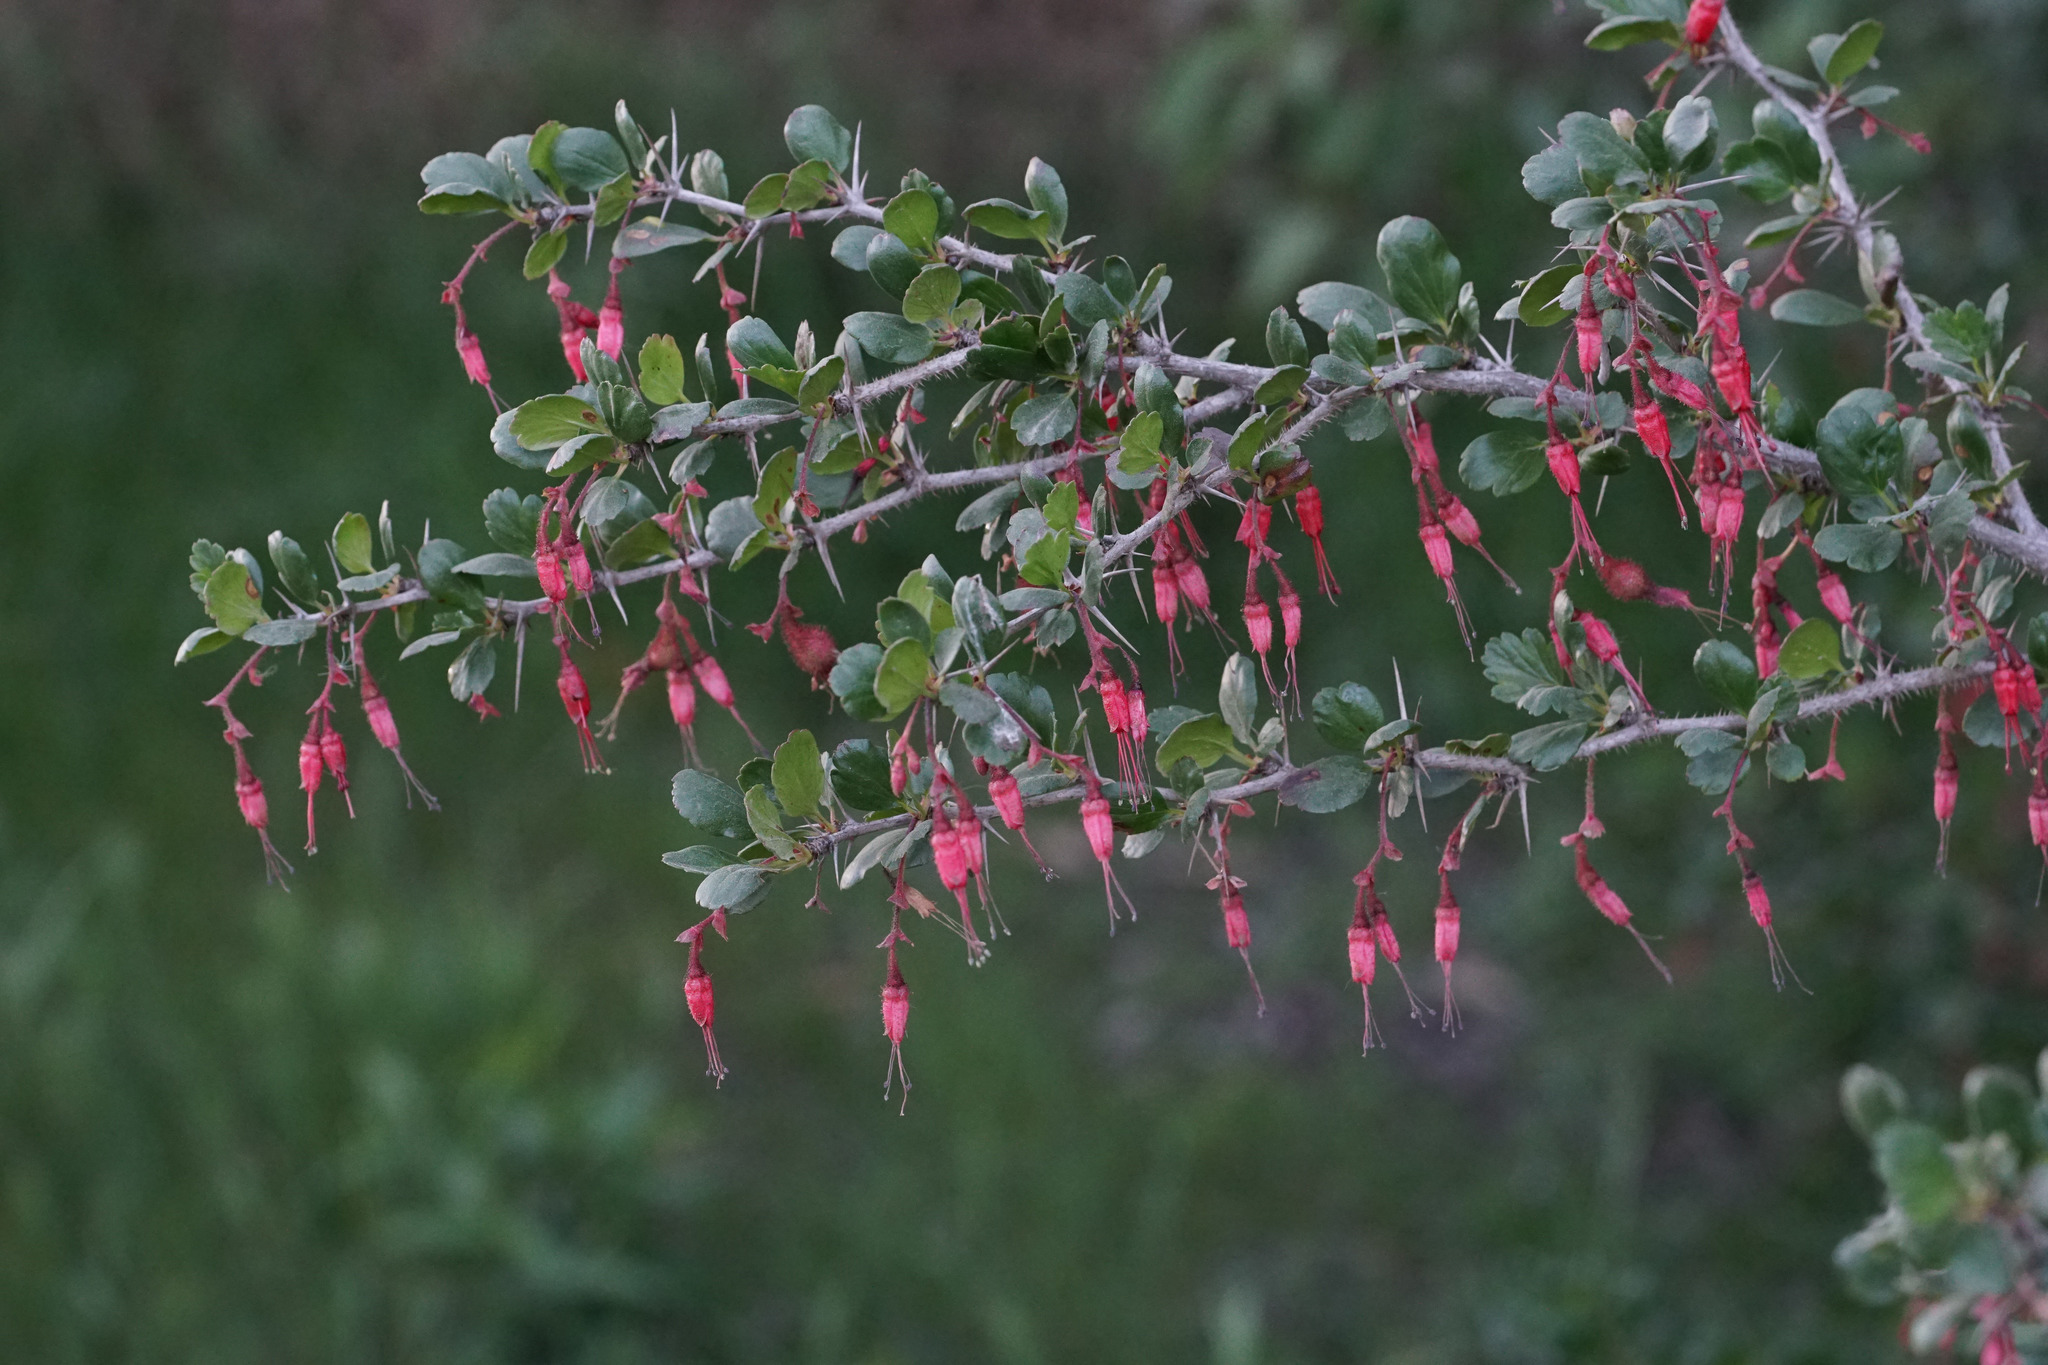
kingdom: Plantae
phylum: Tracheophyta
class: Magnoliopsida
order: Saxifragales
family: Grossulariaceae
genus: Ribes
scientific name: Ribes speciosum
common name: Fuchsia-flower gooseberry
